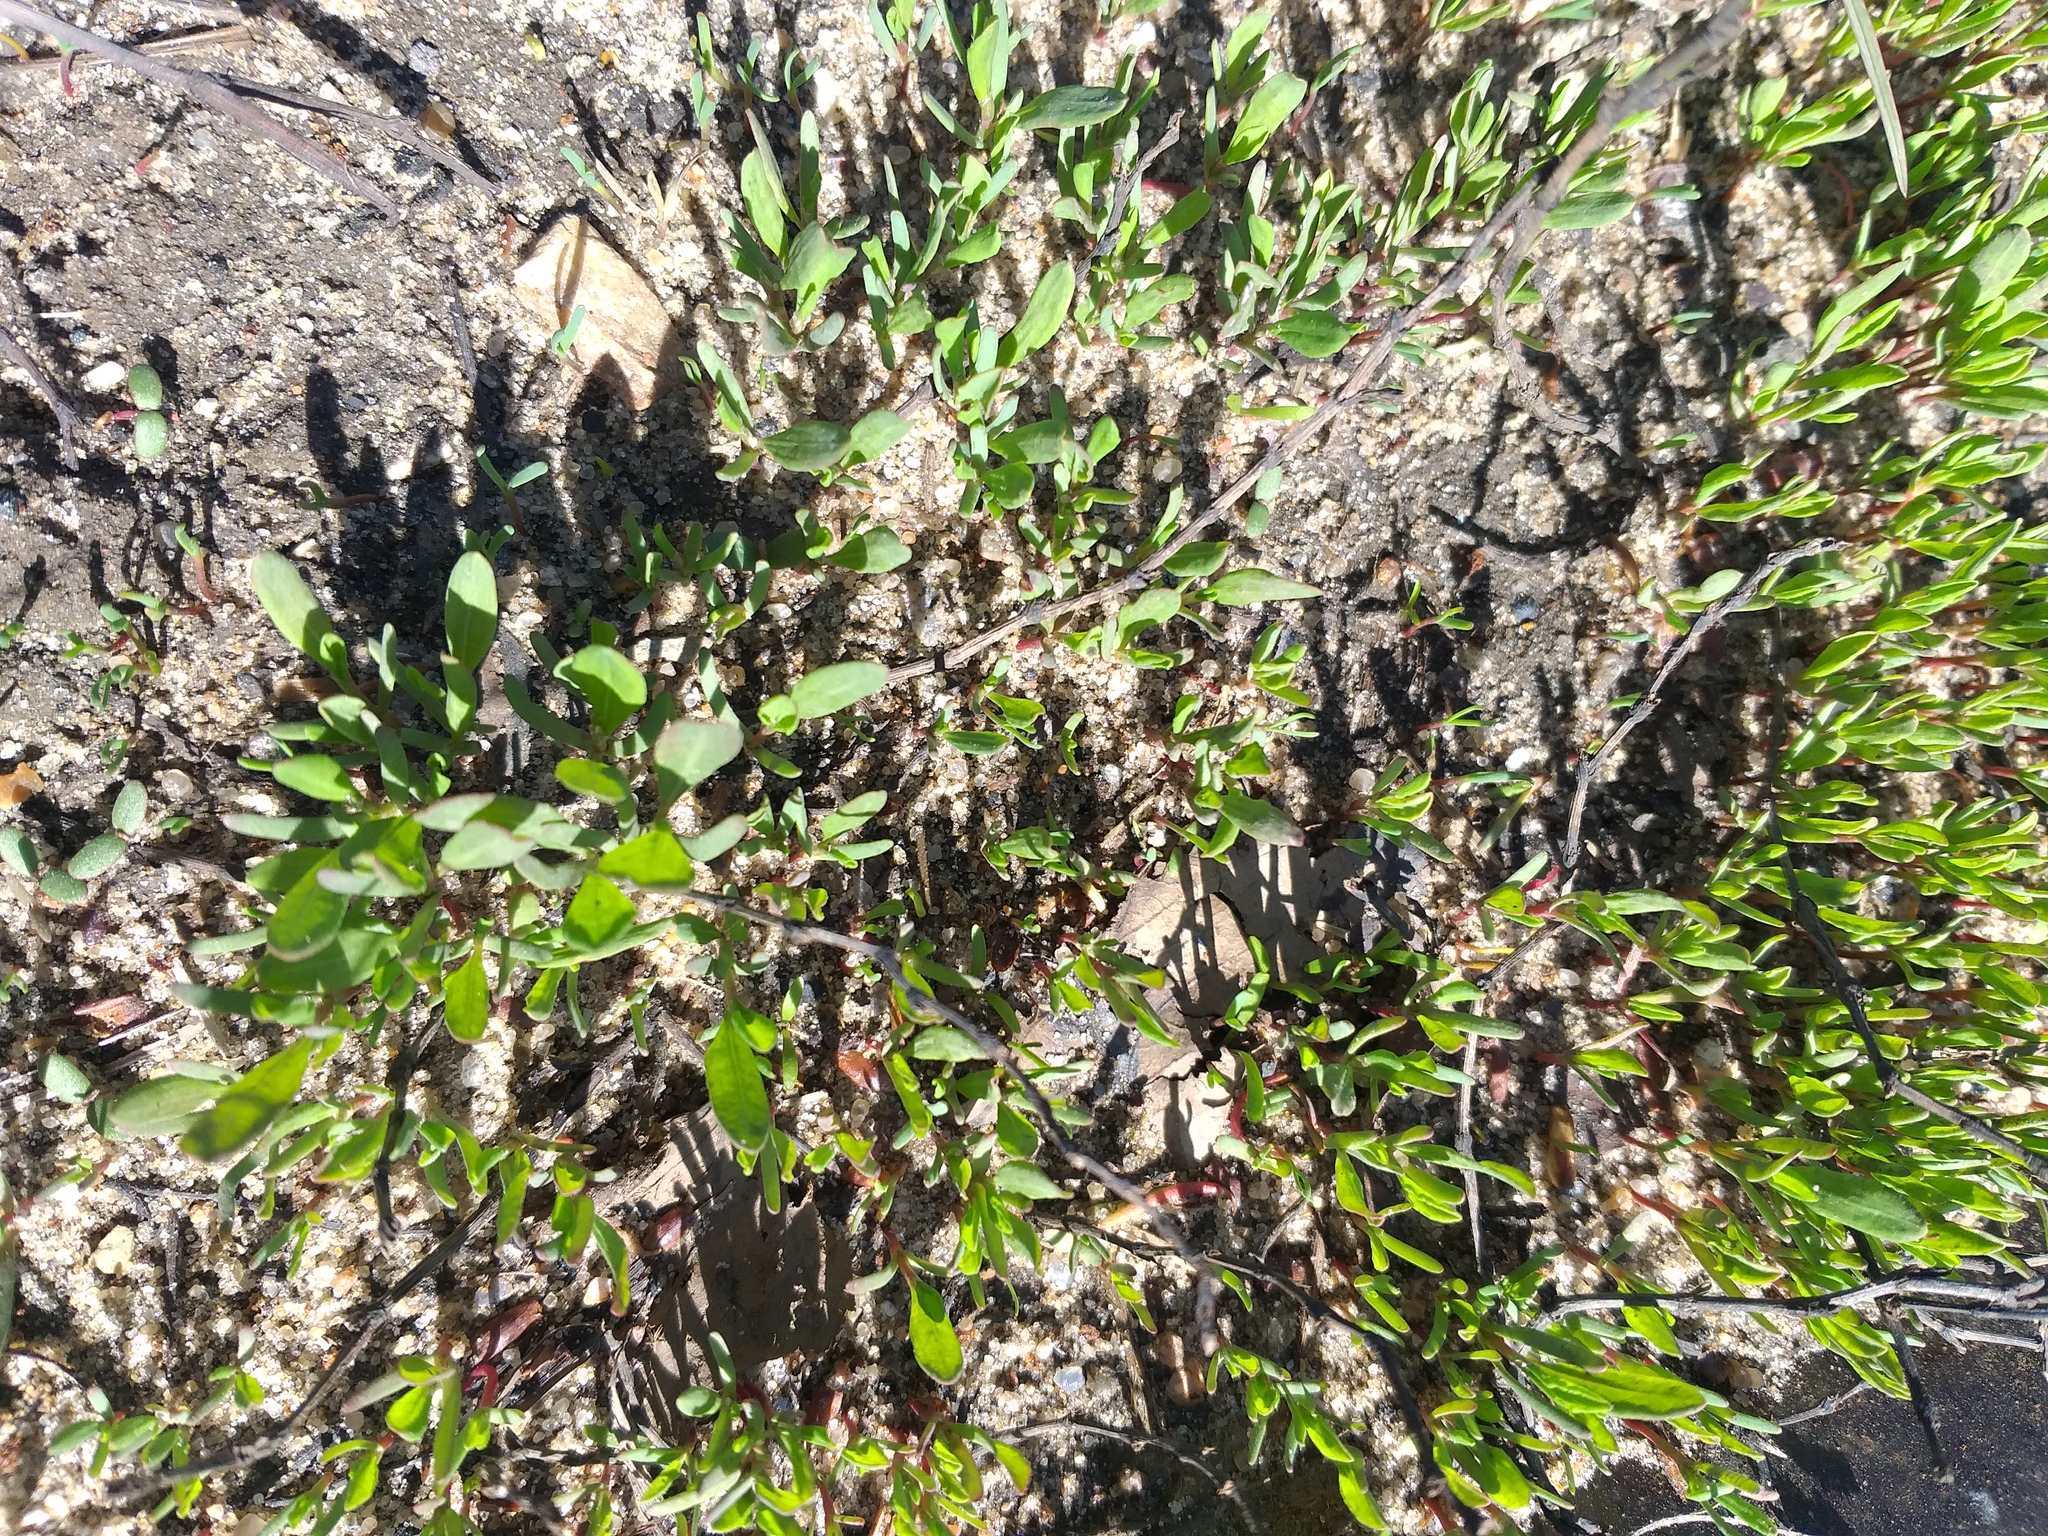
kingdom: Plantae
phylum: Tracheophyta
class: Magnoliopsida
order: Caryophyllales
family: Polygonaceae
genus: Polygonum
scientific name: Polygonum
